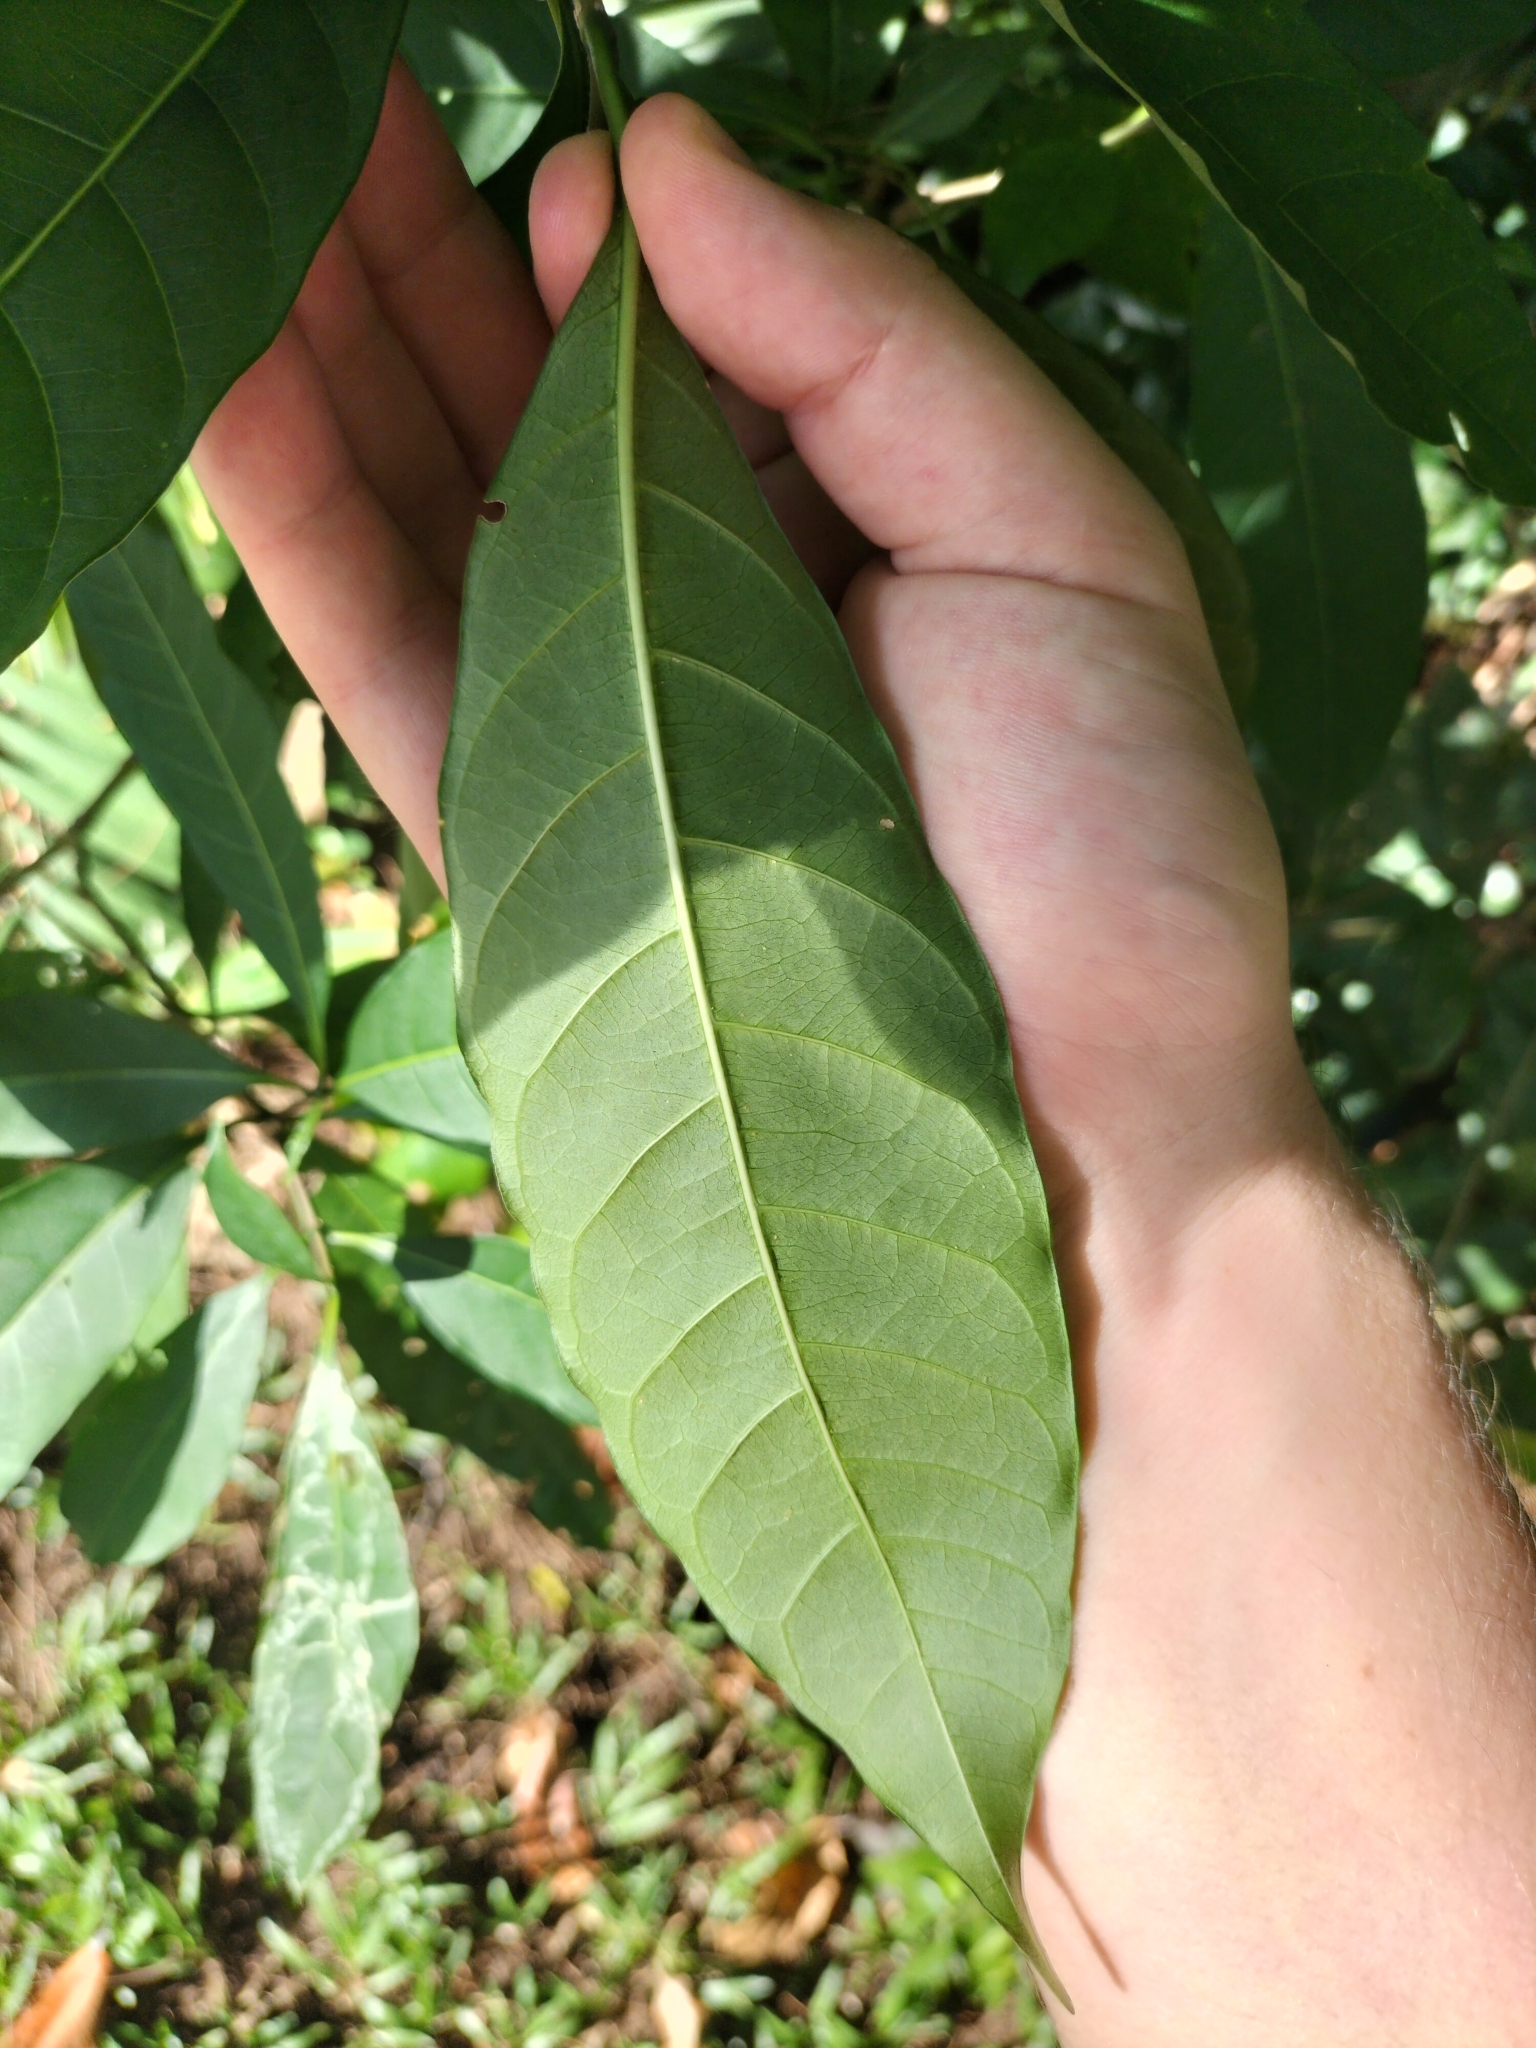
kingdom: Plantae
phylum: Tracheophyta
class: Magnoliopsida
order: Gentianales
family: Apocynaceae
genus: Tabernaemontana
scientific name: Tabernaemontana pandacaqui
